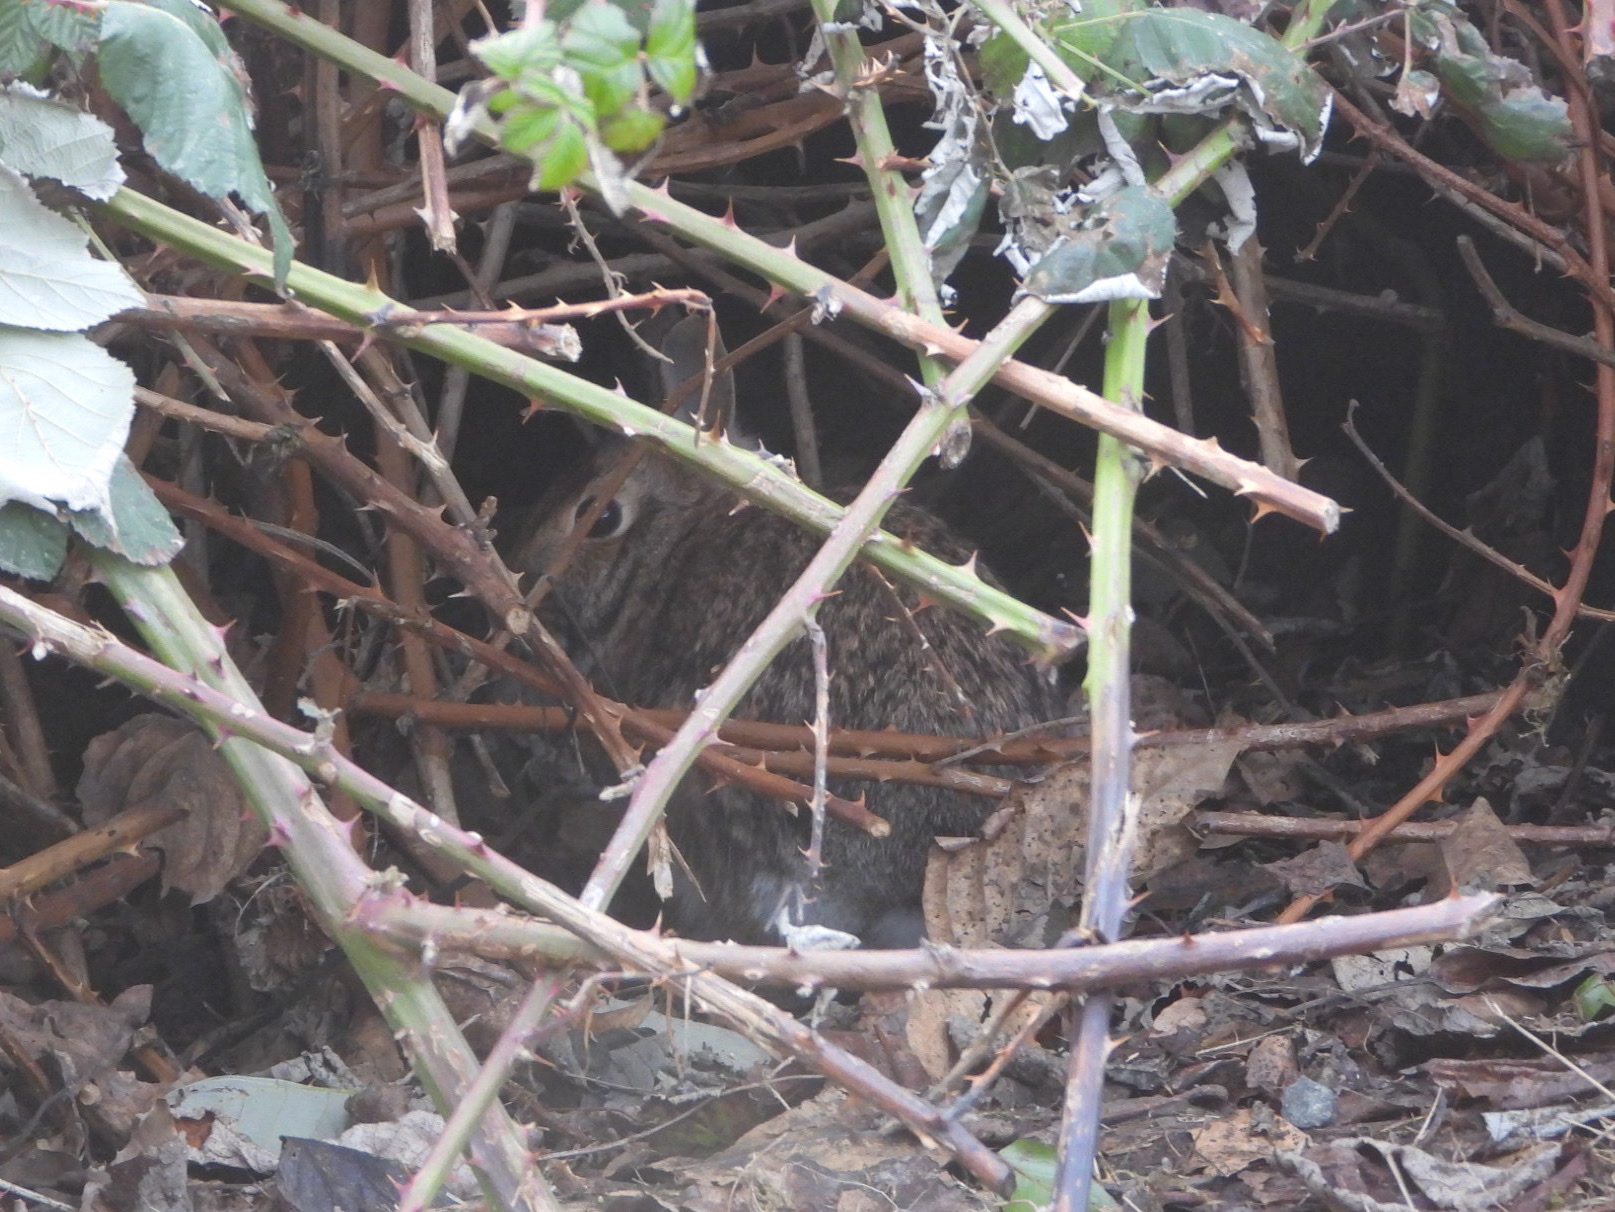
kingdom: Animalia
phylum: Chordata
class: Mammalia
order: Lagomorpha
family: Leporidae
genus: Sylvilagus
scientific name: Sylvilagus floridanus
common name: Eastern cottontail
